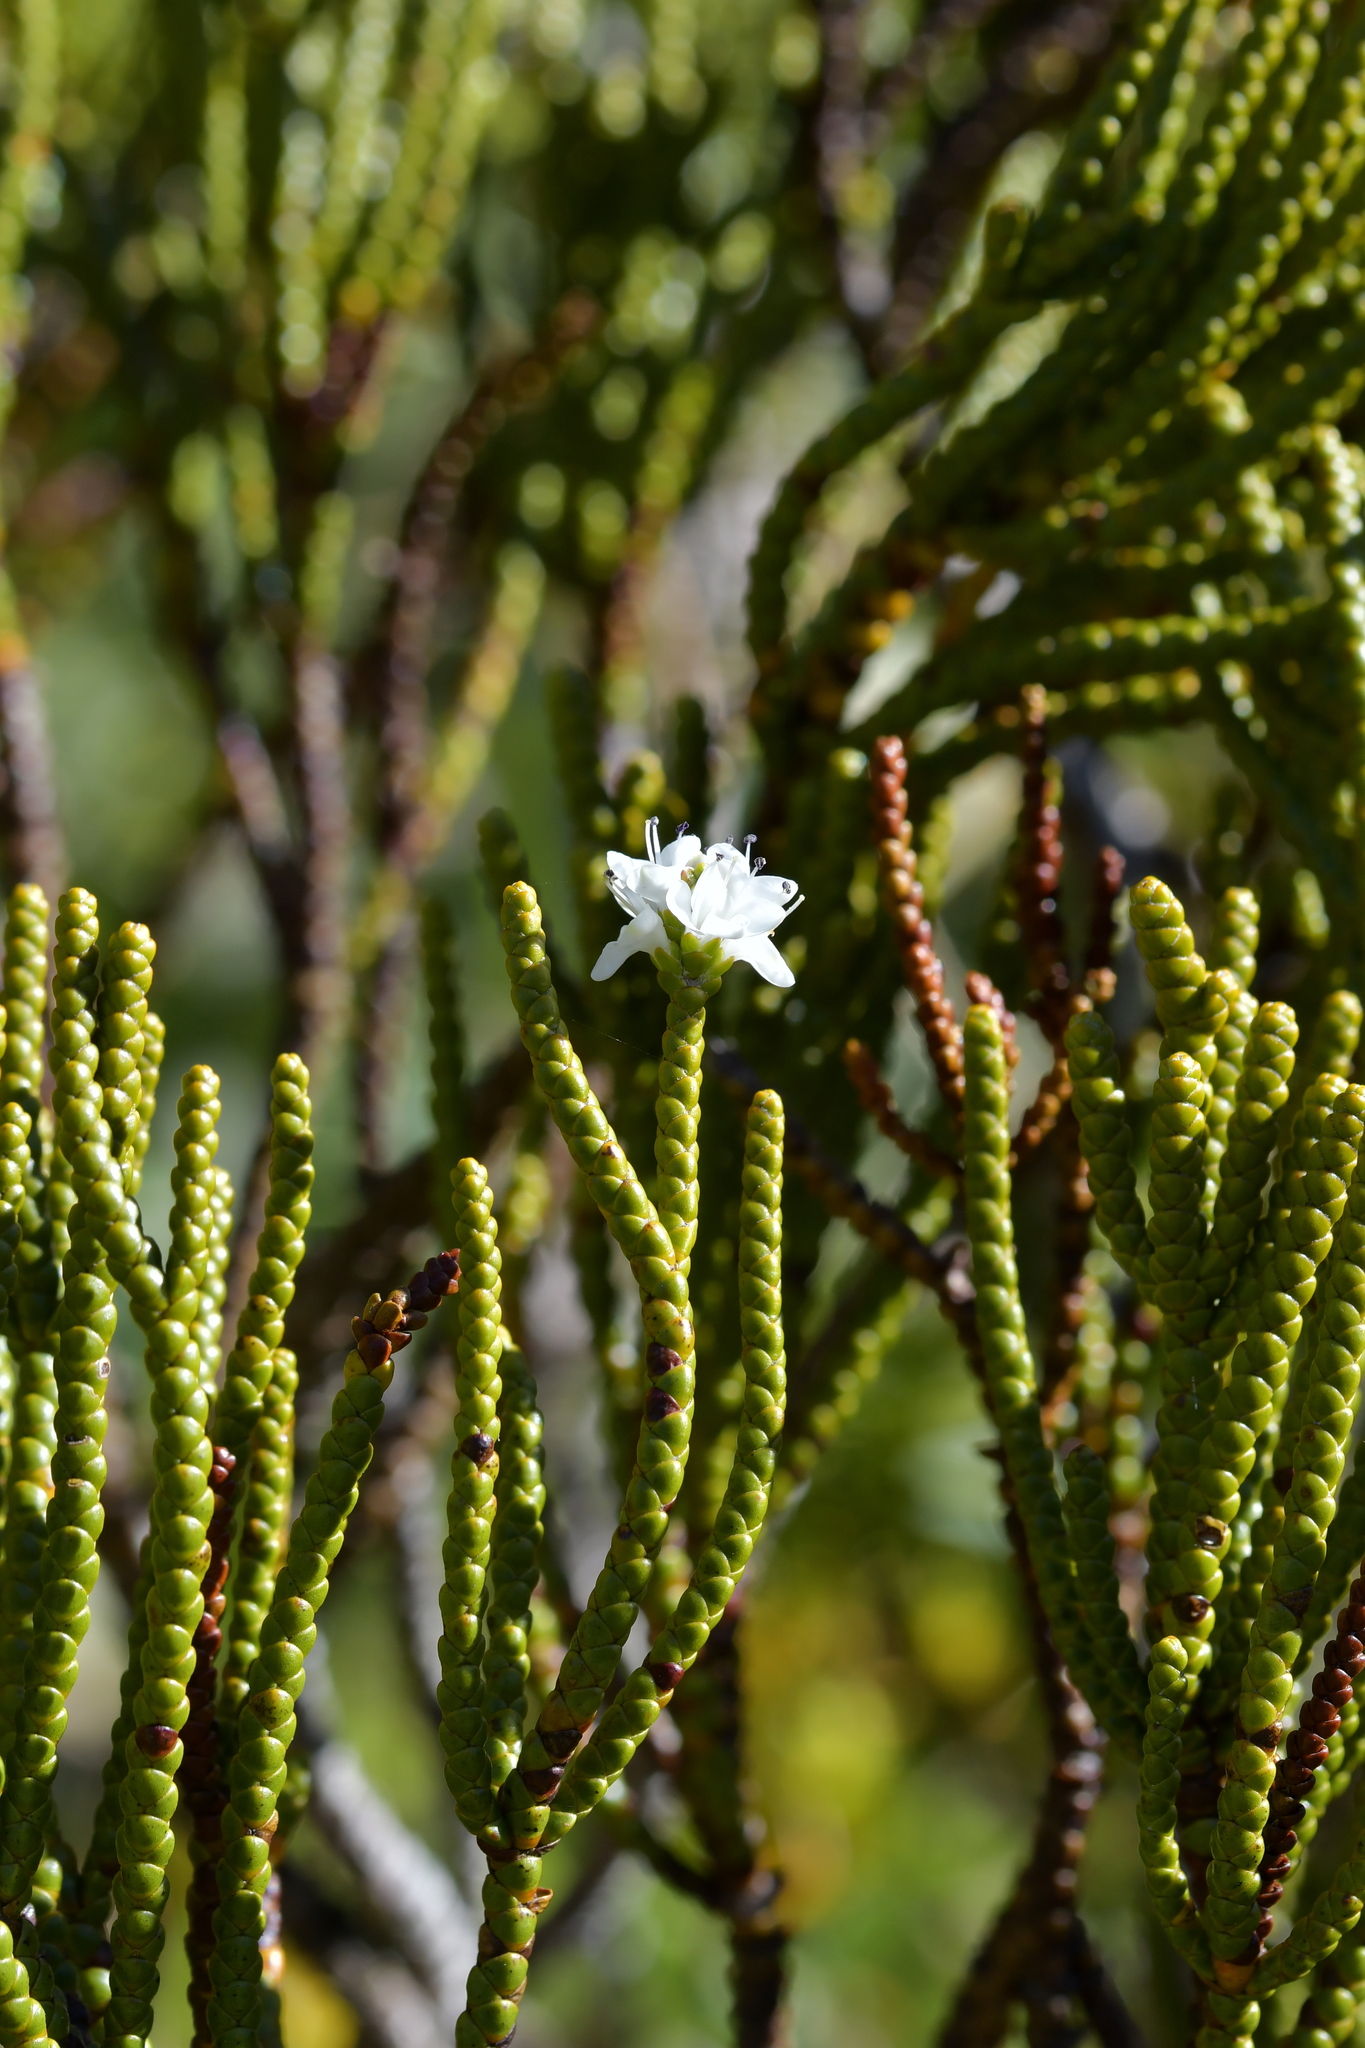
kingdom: Plantae
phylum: Tracheophyta
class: Magnoliopsida
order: Lamiales
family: Plantaginaceae
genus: Veronica
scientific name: Veronica hectorii
